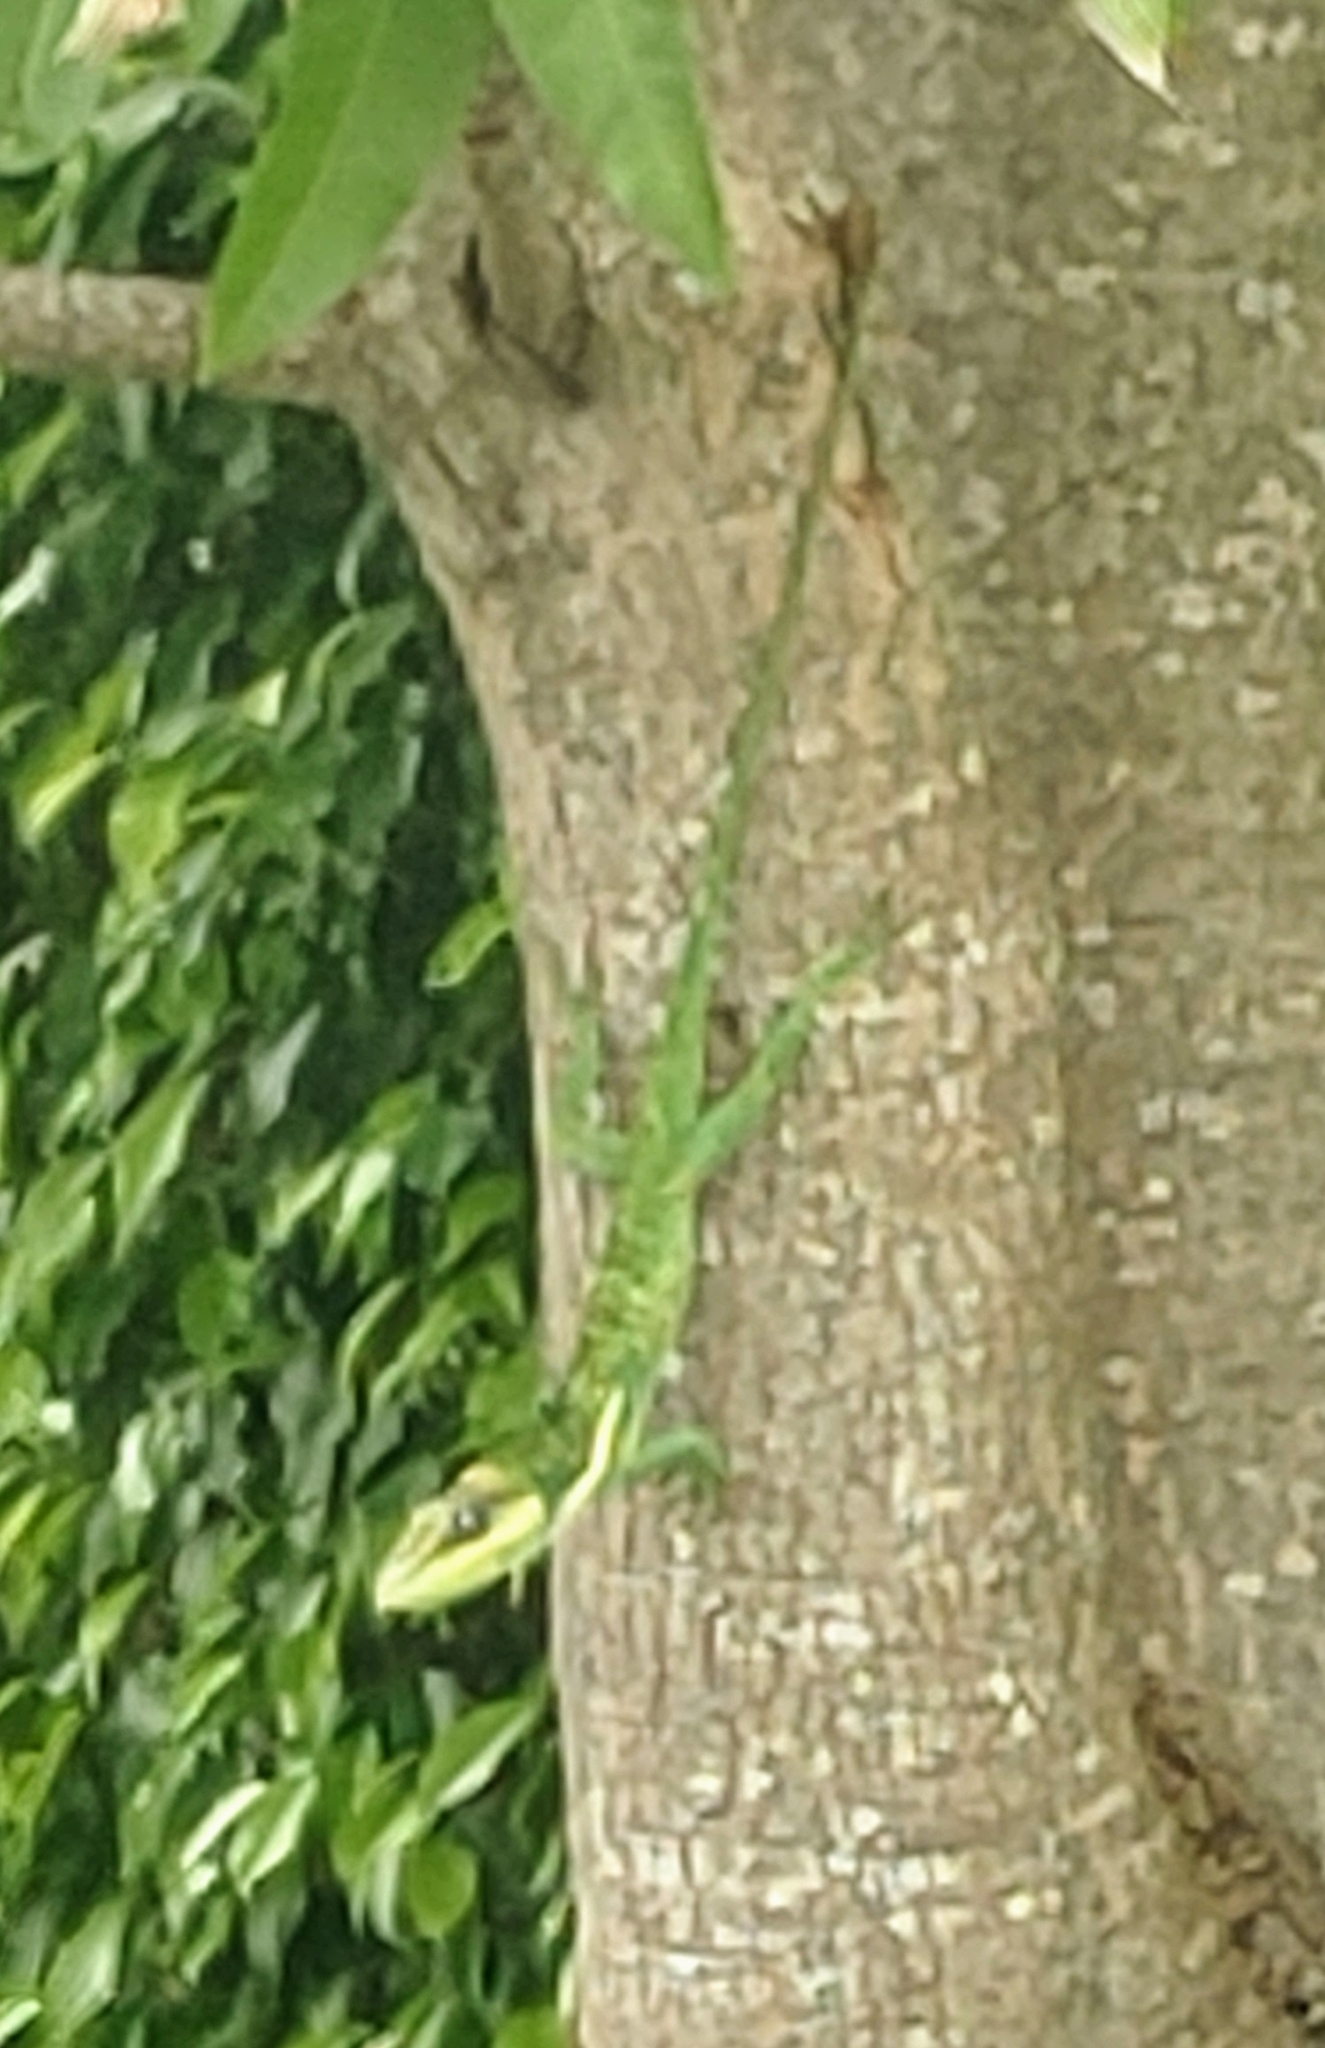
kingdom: Animalia
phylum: Chordata
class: Squamata
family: Dactyloidae
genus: Anolis
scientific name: Anolis equestris
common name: Knight anole
